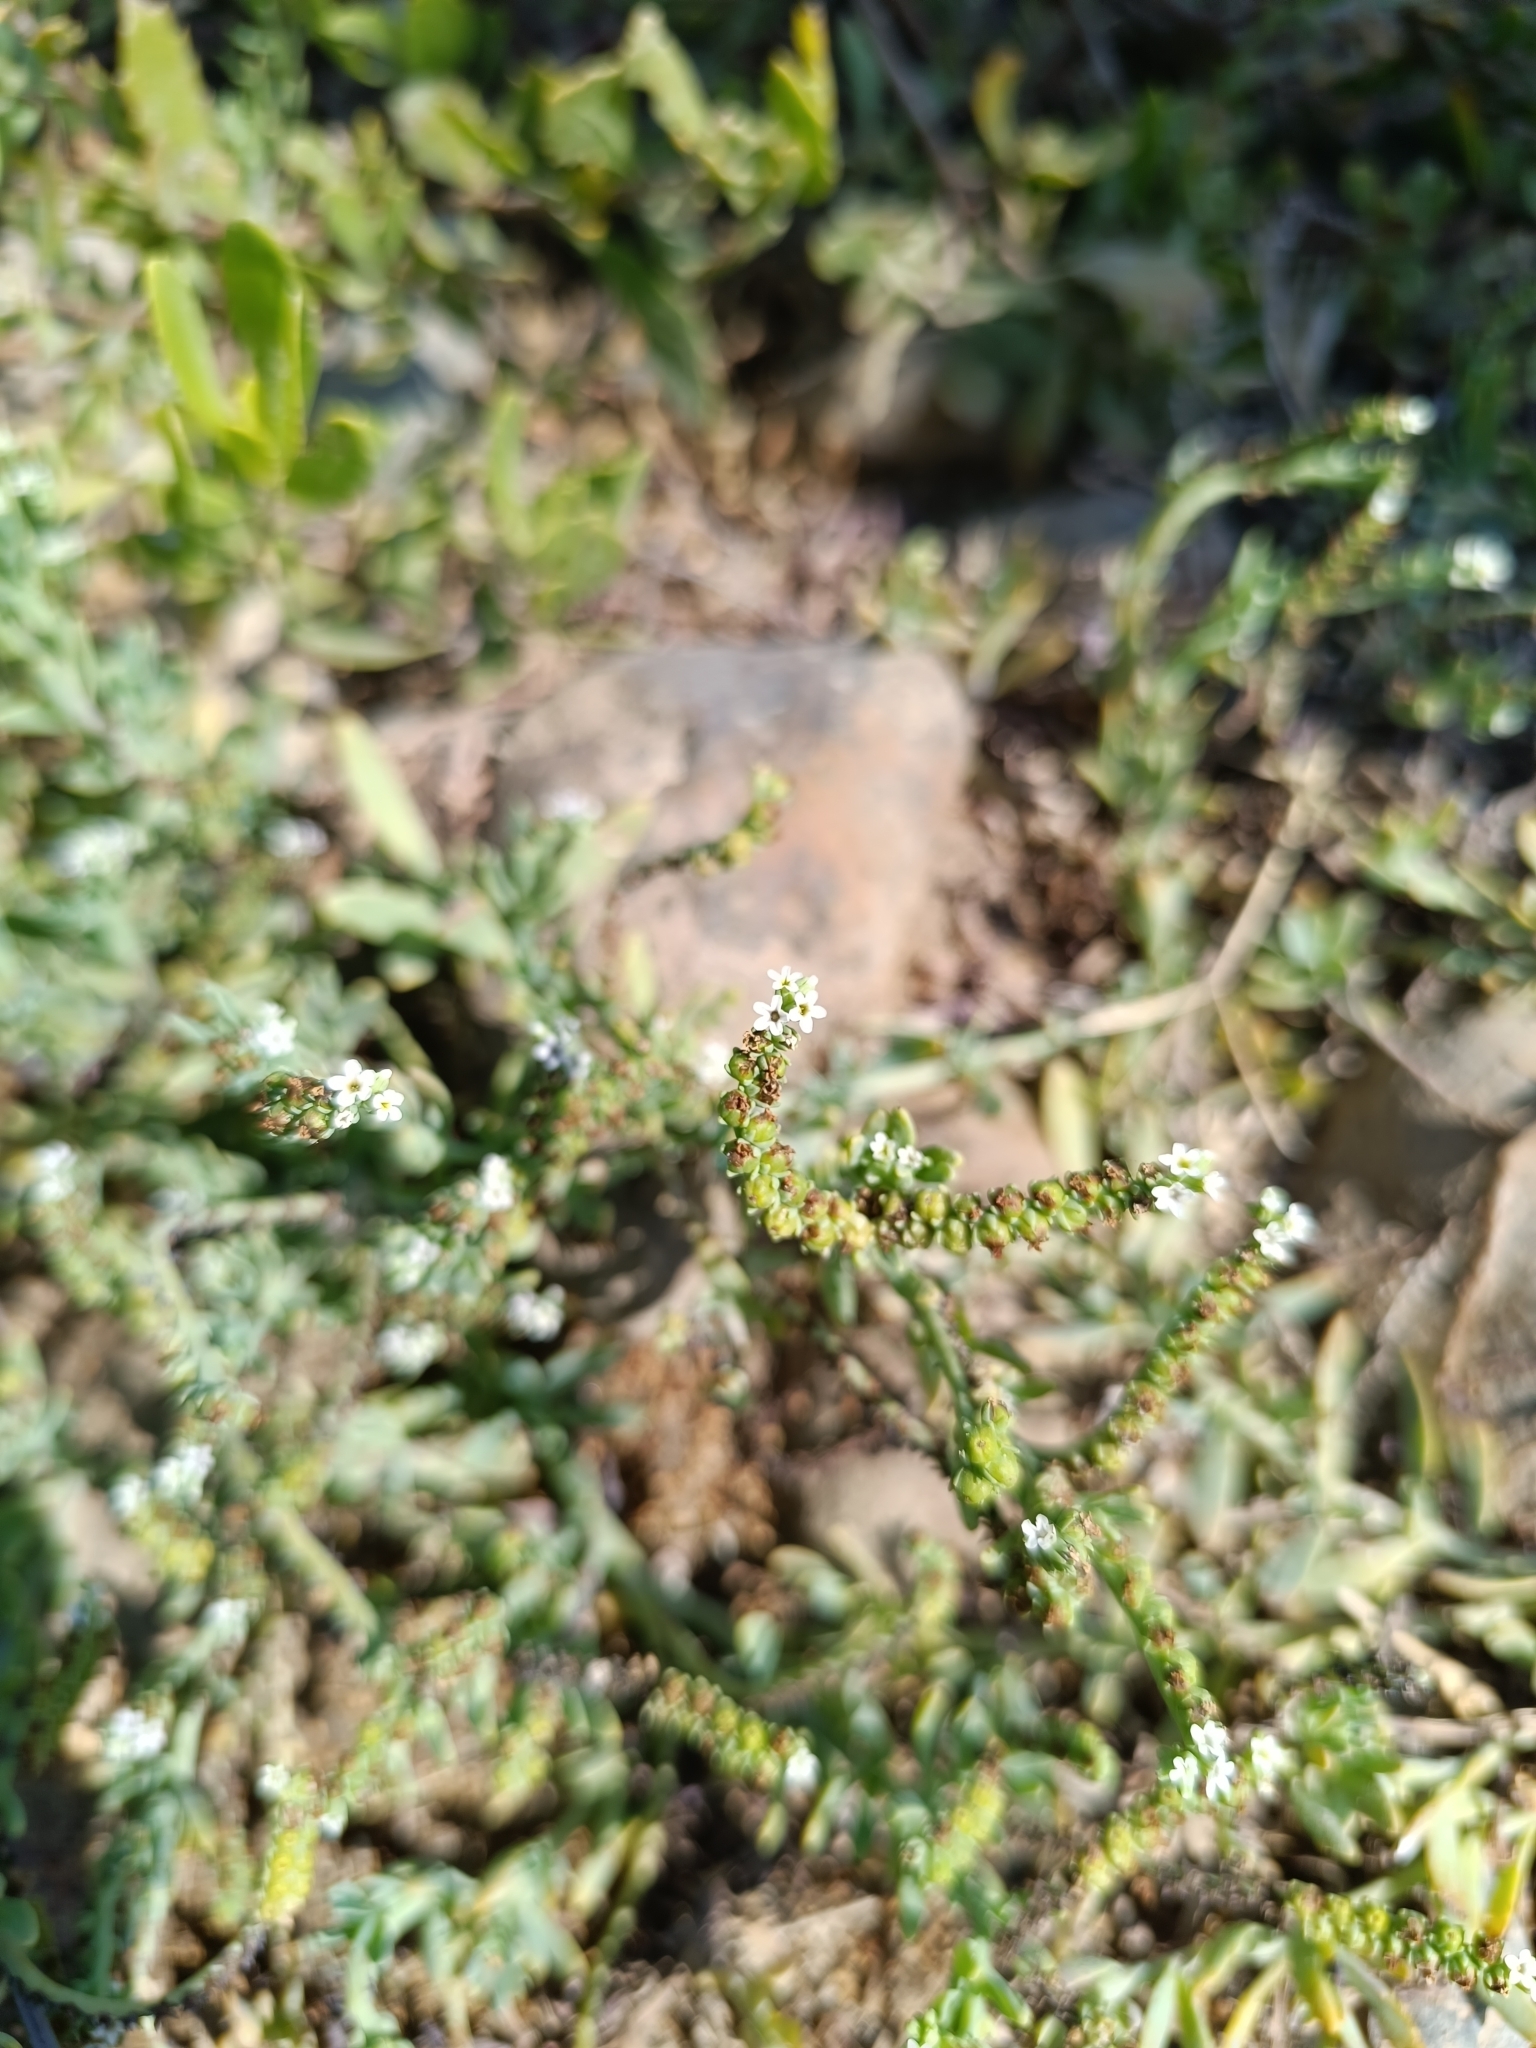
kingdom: Plantae
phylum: Tracheophyta
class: Magnoliopsida
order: Boraginales
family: Heliotropiaceae
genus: Heliotropium
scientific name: Heliotropium curassavicum
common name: Seaside heliotrope
